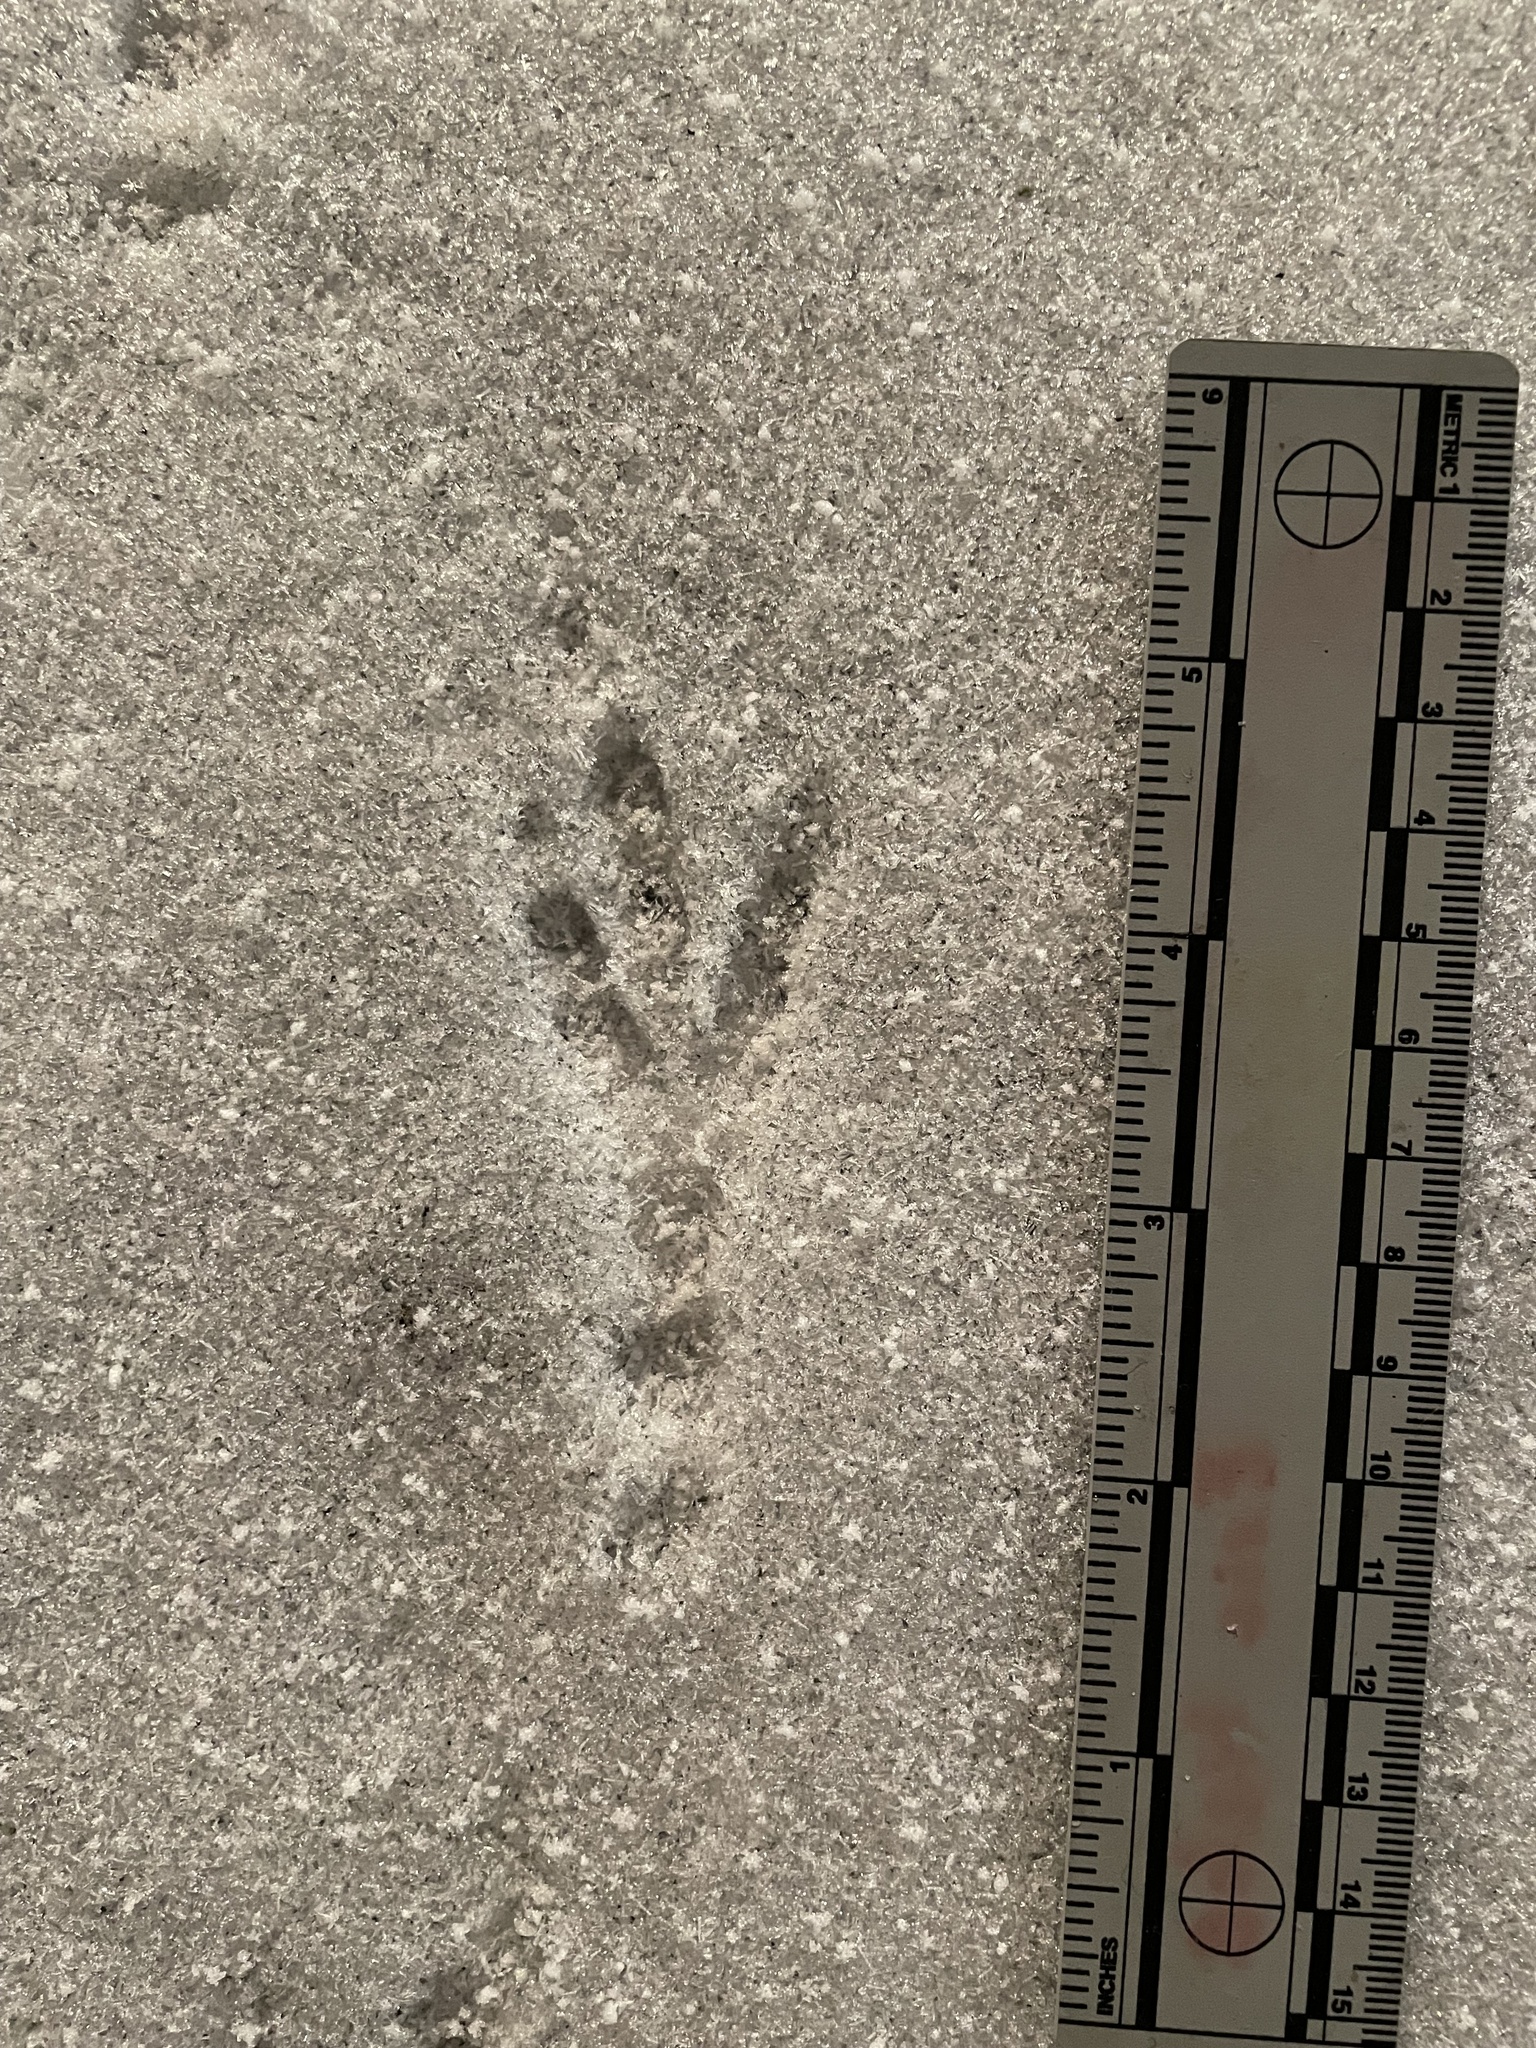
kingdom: Animalia
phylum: Chordata
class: Aves
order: Passeriformes
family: Corvidae
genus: Corvus
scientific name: Corvus brachyrhynchos
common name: American crow
